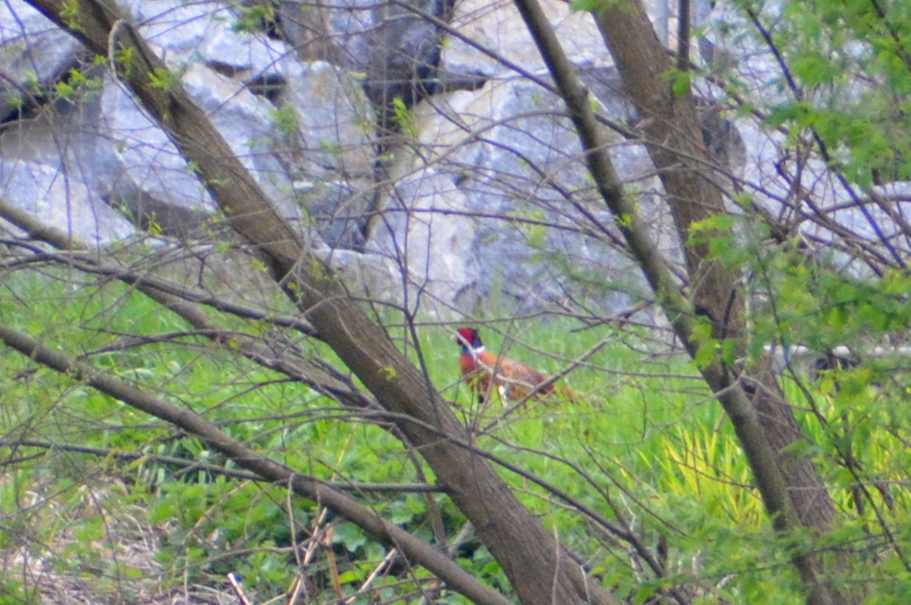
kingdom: Animalia
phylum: Chordata
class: Aves
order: Galliformes
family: Phasianidae
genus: Phasianus
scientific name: Phasianus colchicus
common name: Common pheasant
